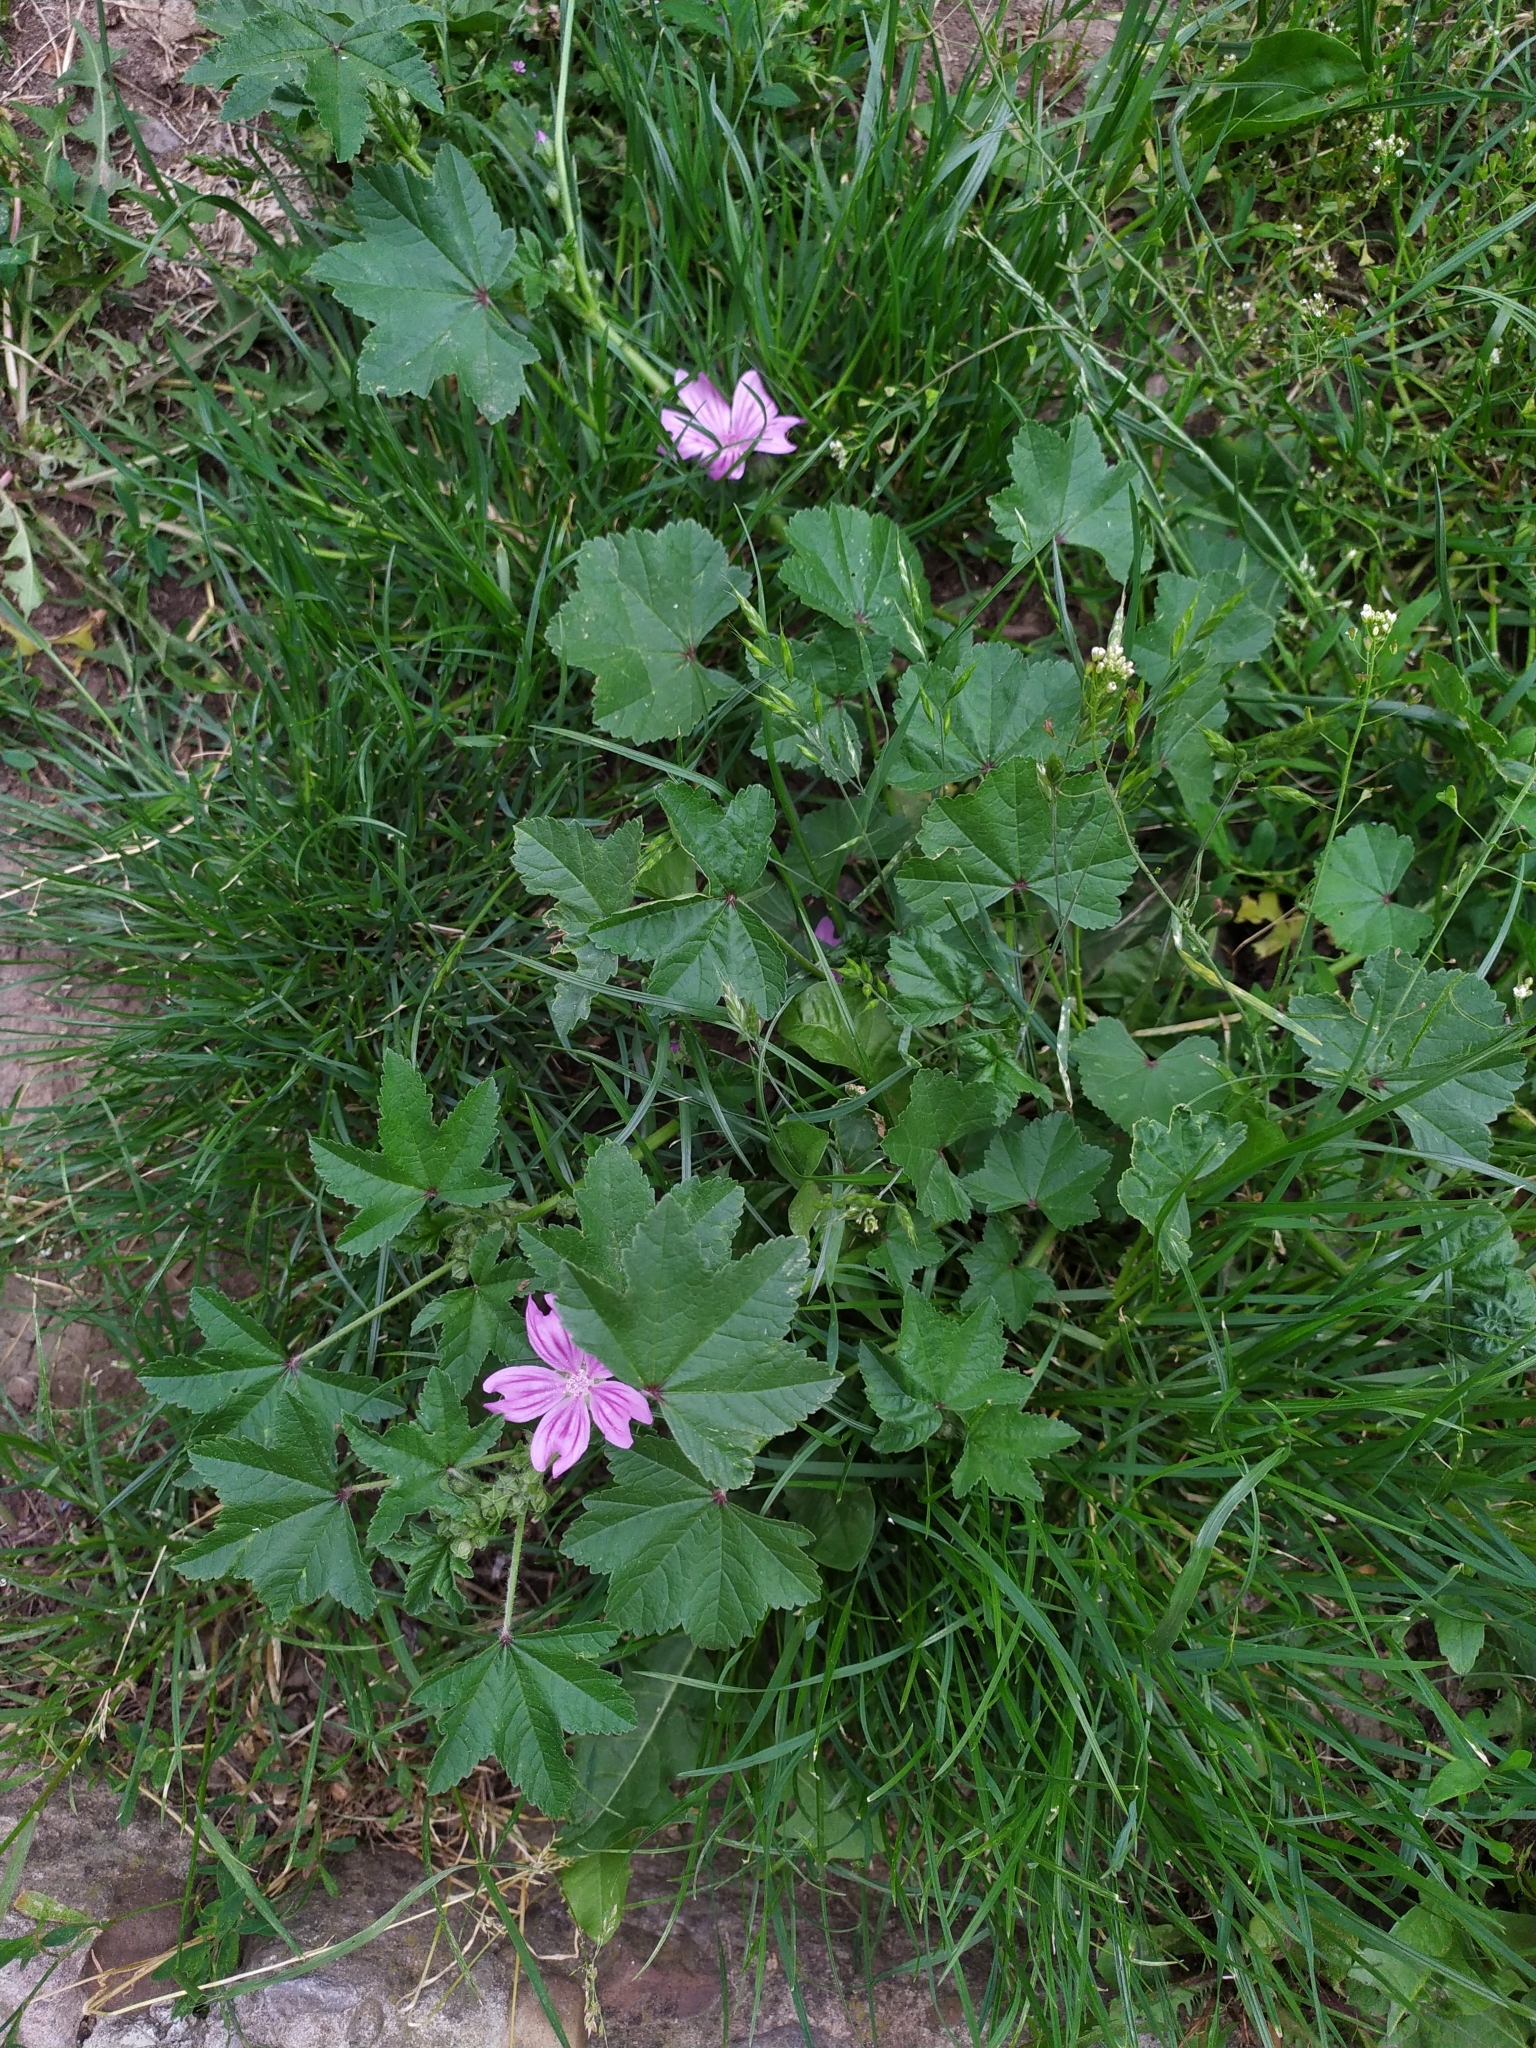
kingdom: Plantae
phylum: Tracheophyta
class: Magnoliopsida
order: Malvales
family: Malvaceae
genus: Malva
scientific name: Malva sylvestris
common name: Common mallow
